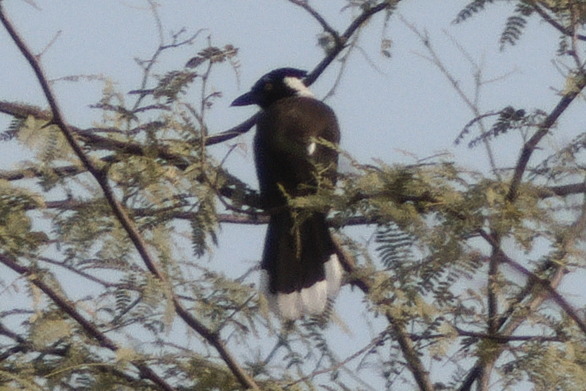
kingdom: Animalia
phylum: Chordata
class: Aves
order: Passeriformes
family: Corvidae
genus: Cyanocorax
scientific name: Cyanocorax cyanopogon
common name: White-naped jay
